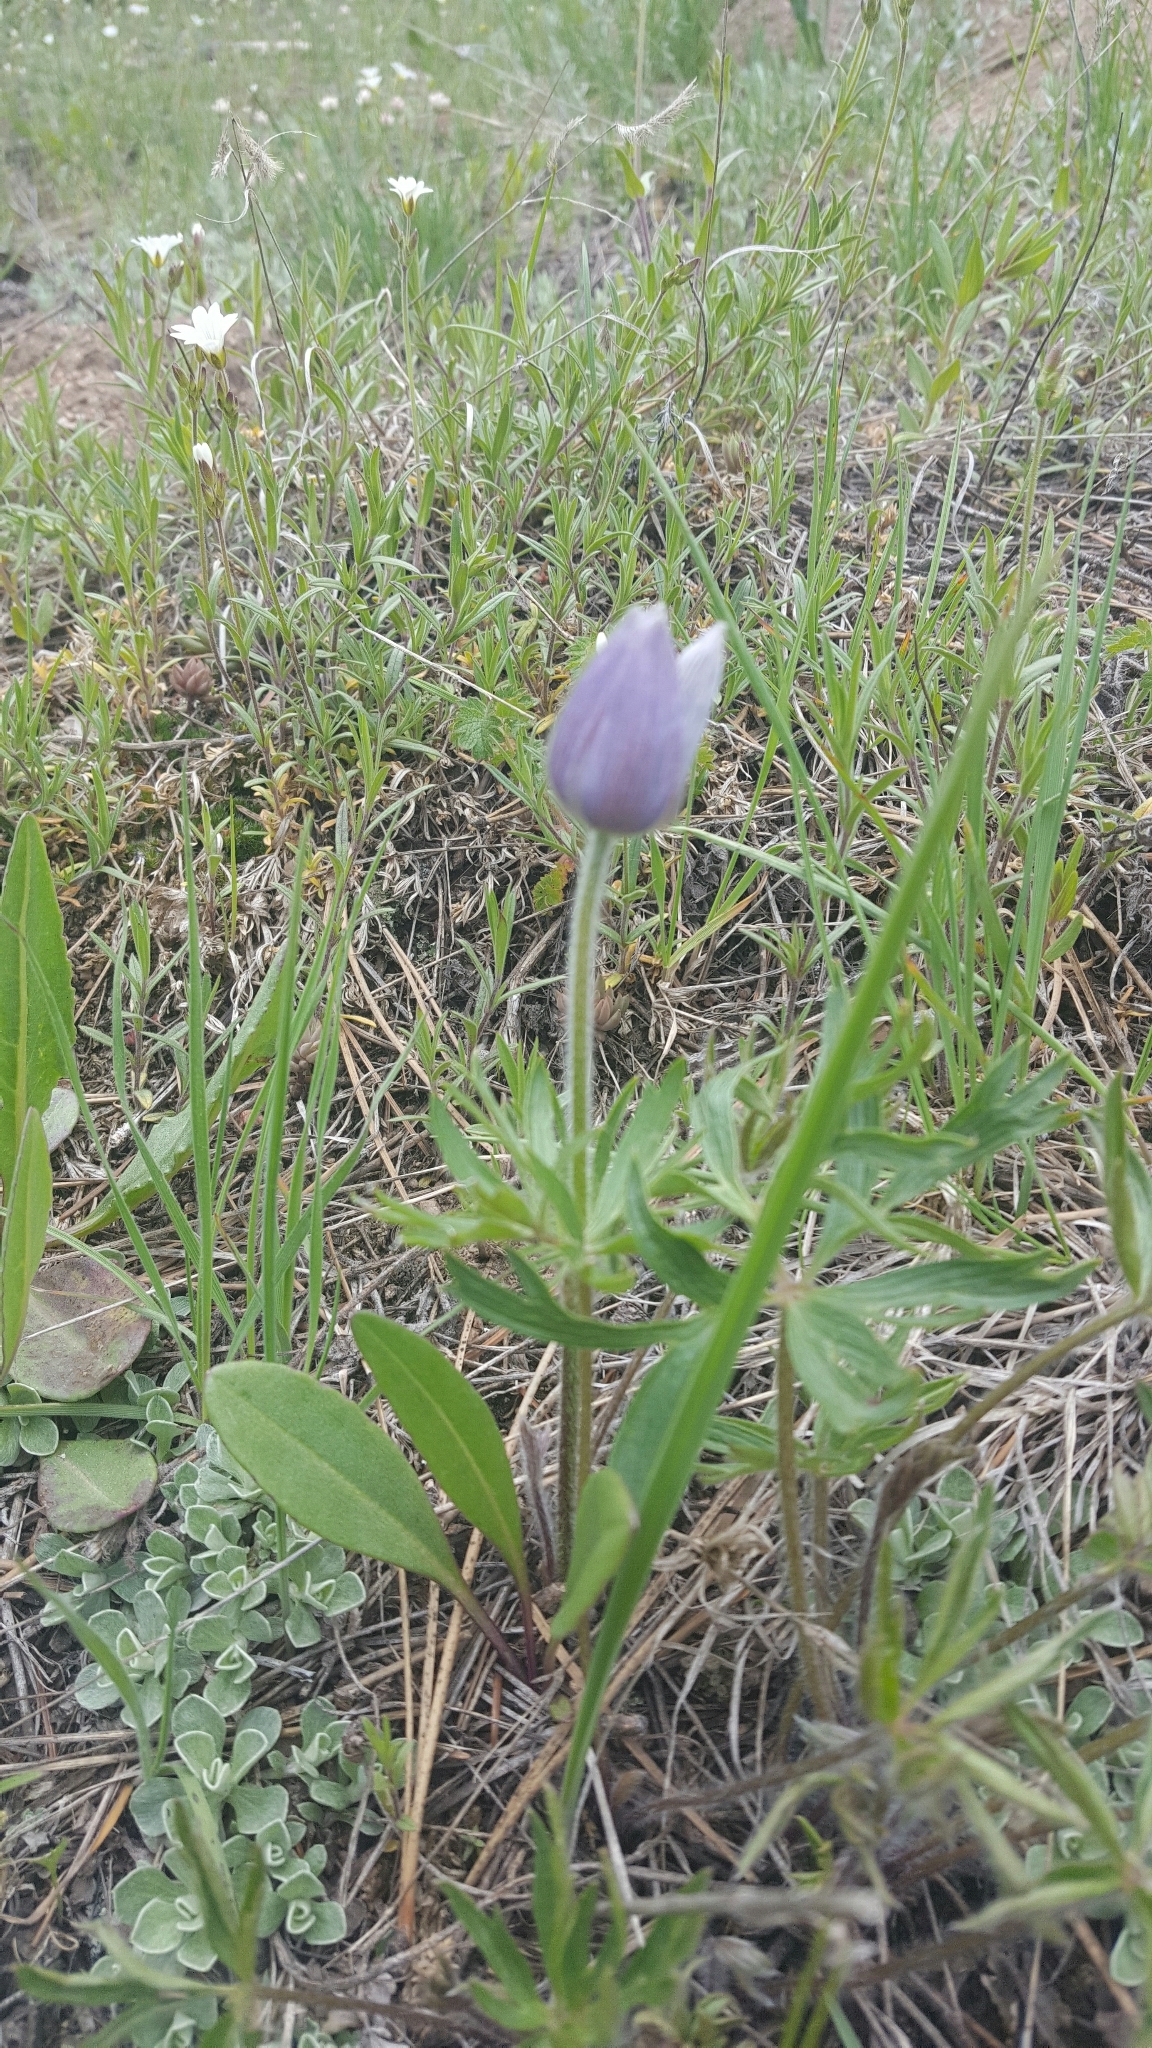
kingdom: Plantae
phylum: Tracheophyta
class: Magnoliopsida
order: Ranunculales
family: Ranunculaceae
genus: Pulsatilla
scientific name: Pulsatilla nuttalliana
